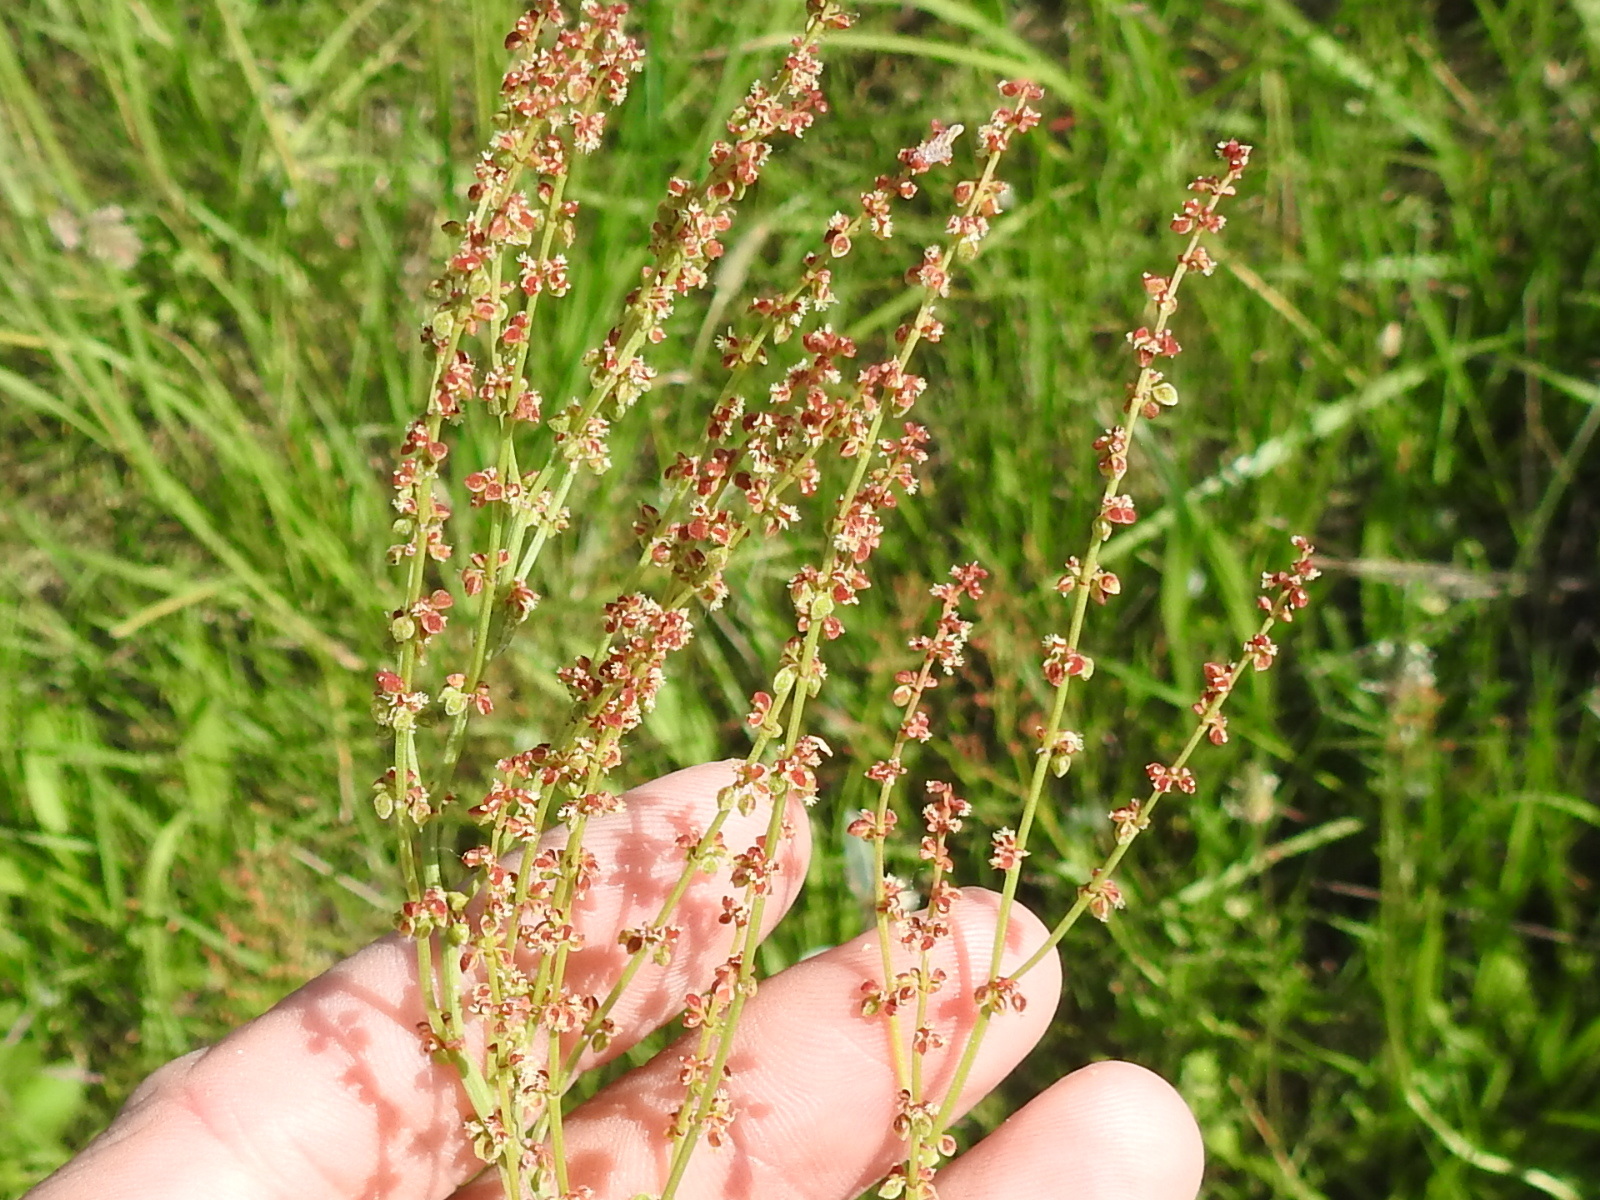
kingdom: Plantae
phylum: Tracheophyta
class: Magnoliopsida
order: Caryophyllales
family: Polygonaceae
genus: Rumex
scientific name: Rumex acetosella
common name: Common sheep sorrel
